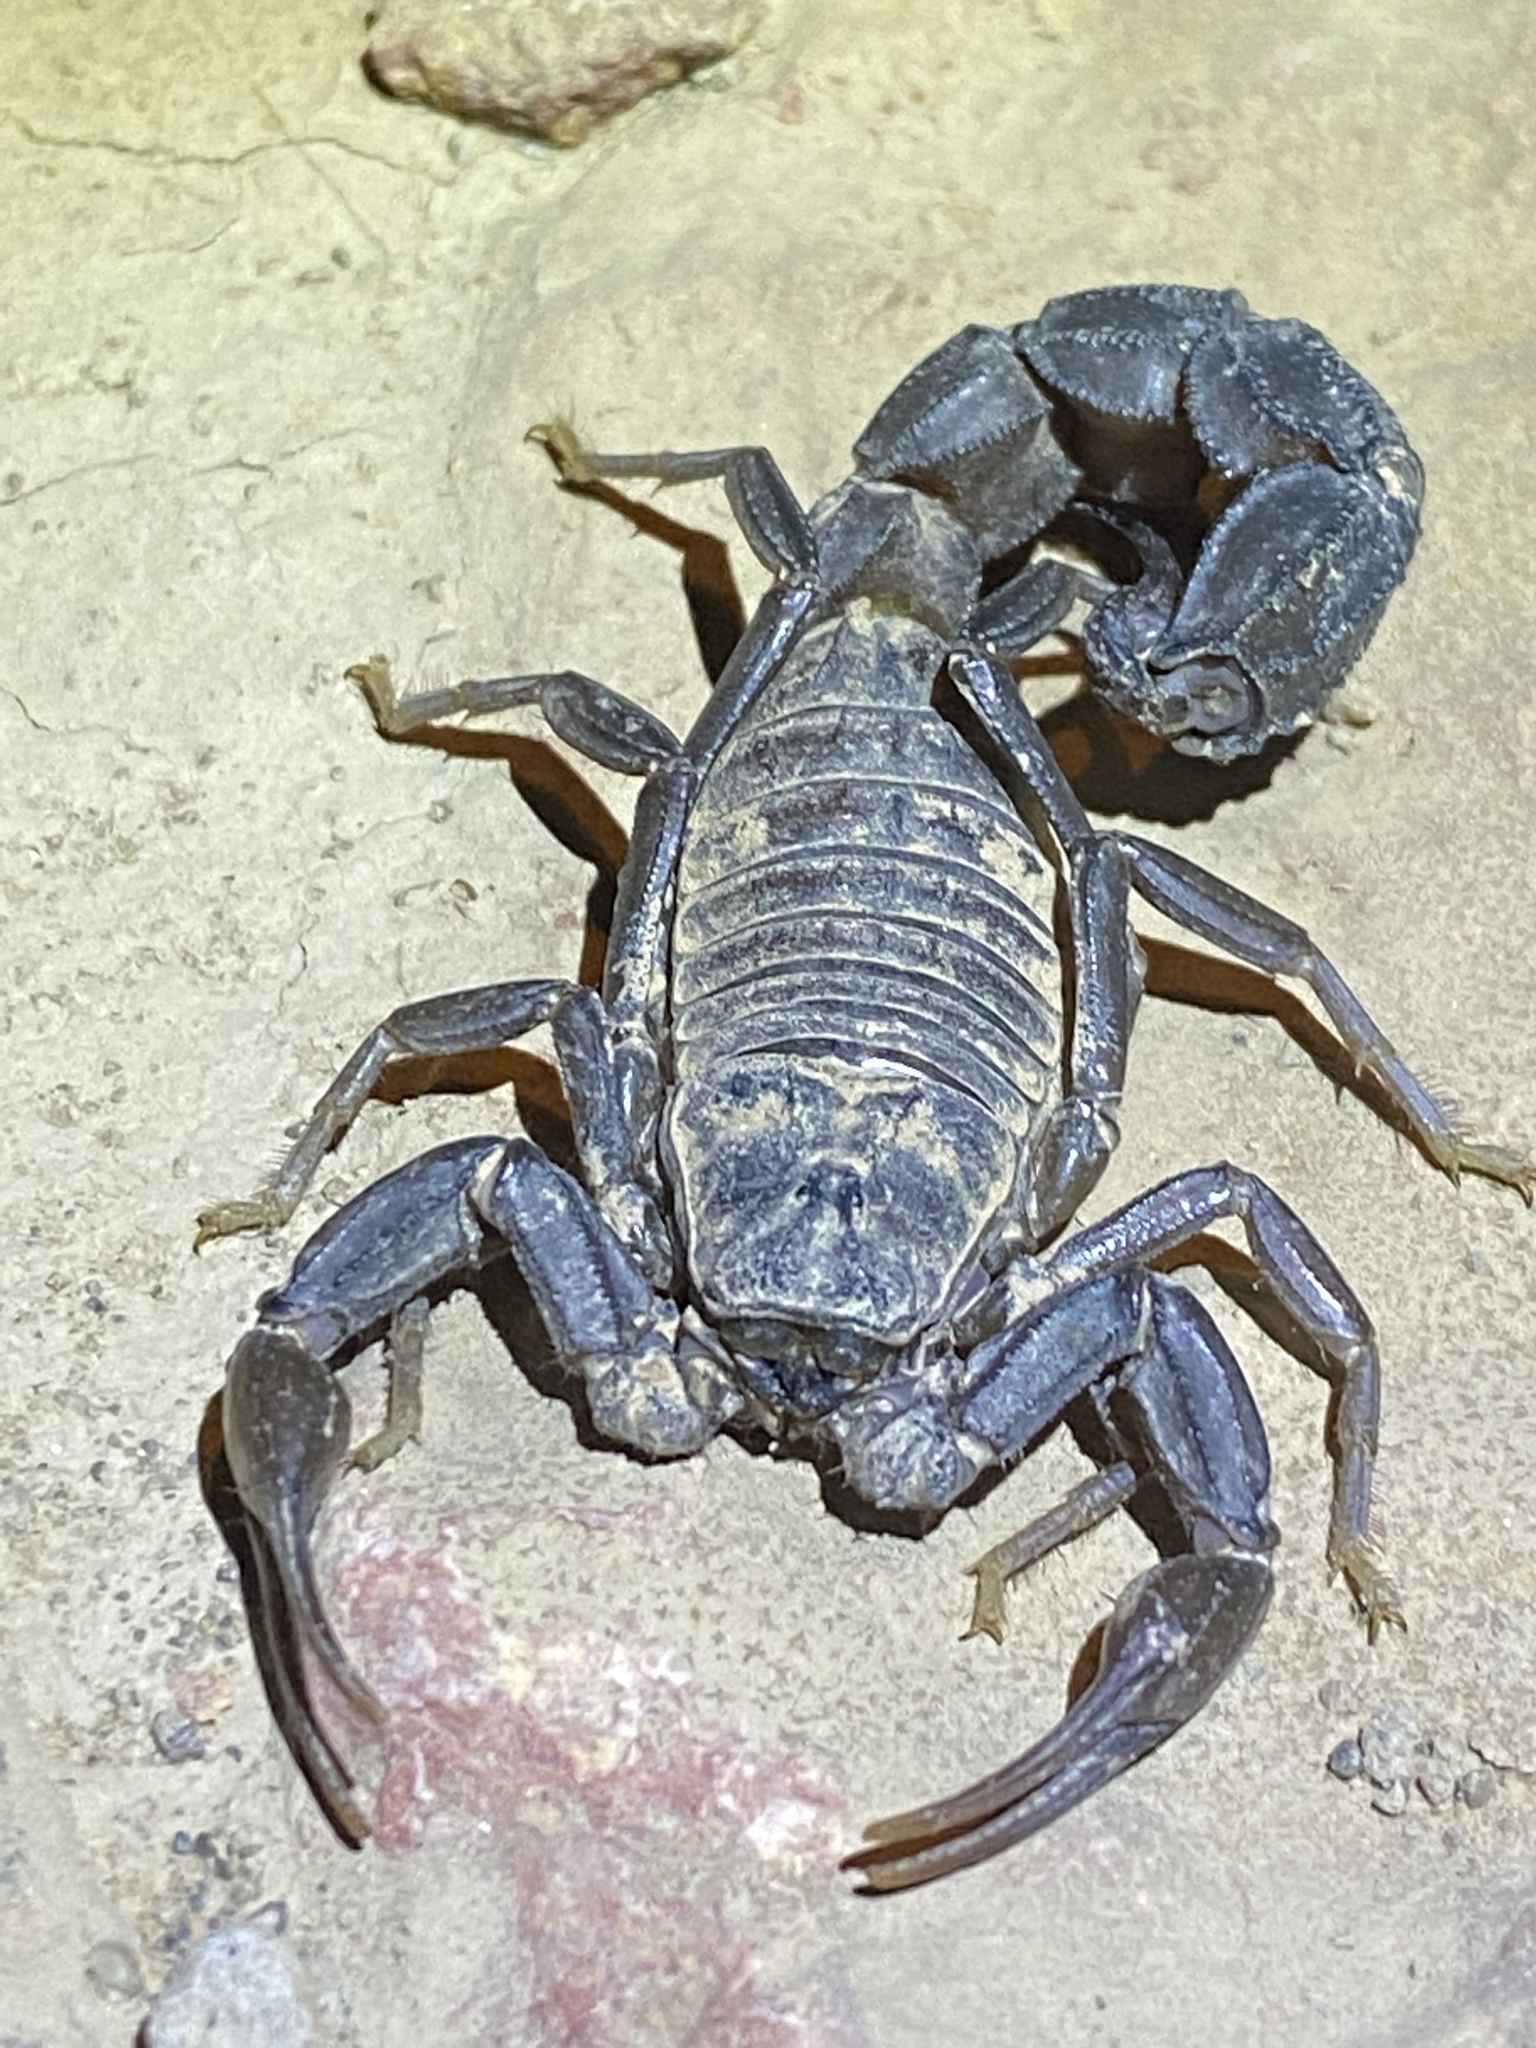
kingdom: Animalia
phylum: Arthropoda
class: Arachnida
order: Scorpiones
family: Buthidae
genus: Androctonus
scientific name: Androctonus crassicauda
